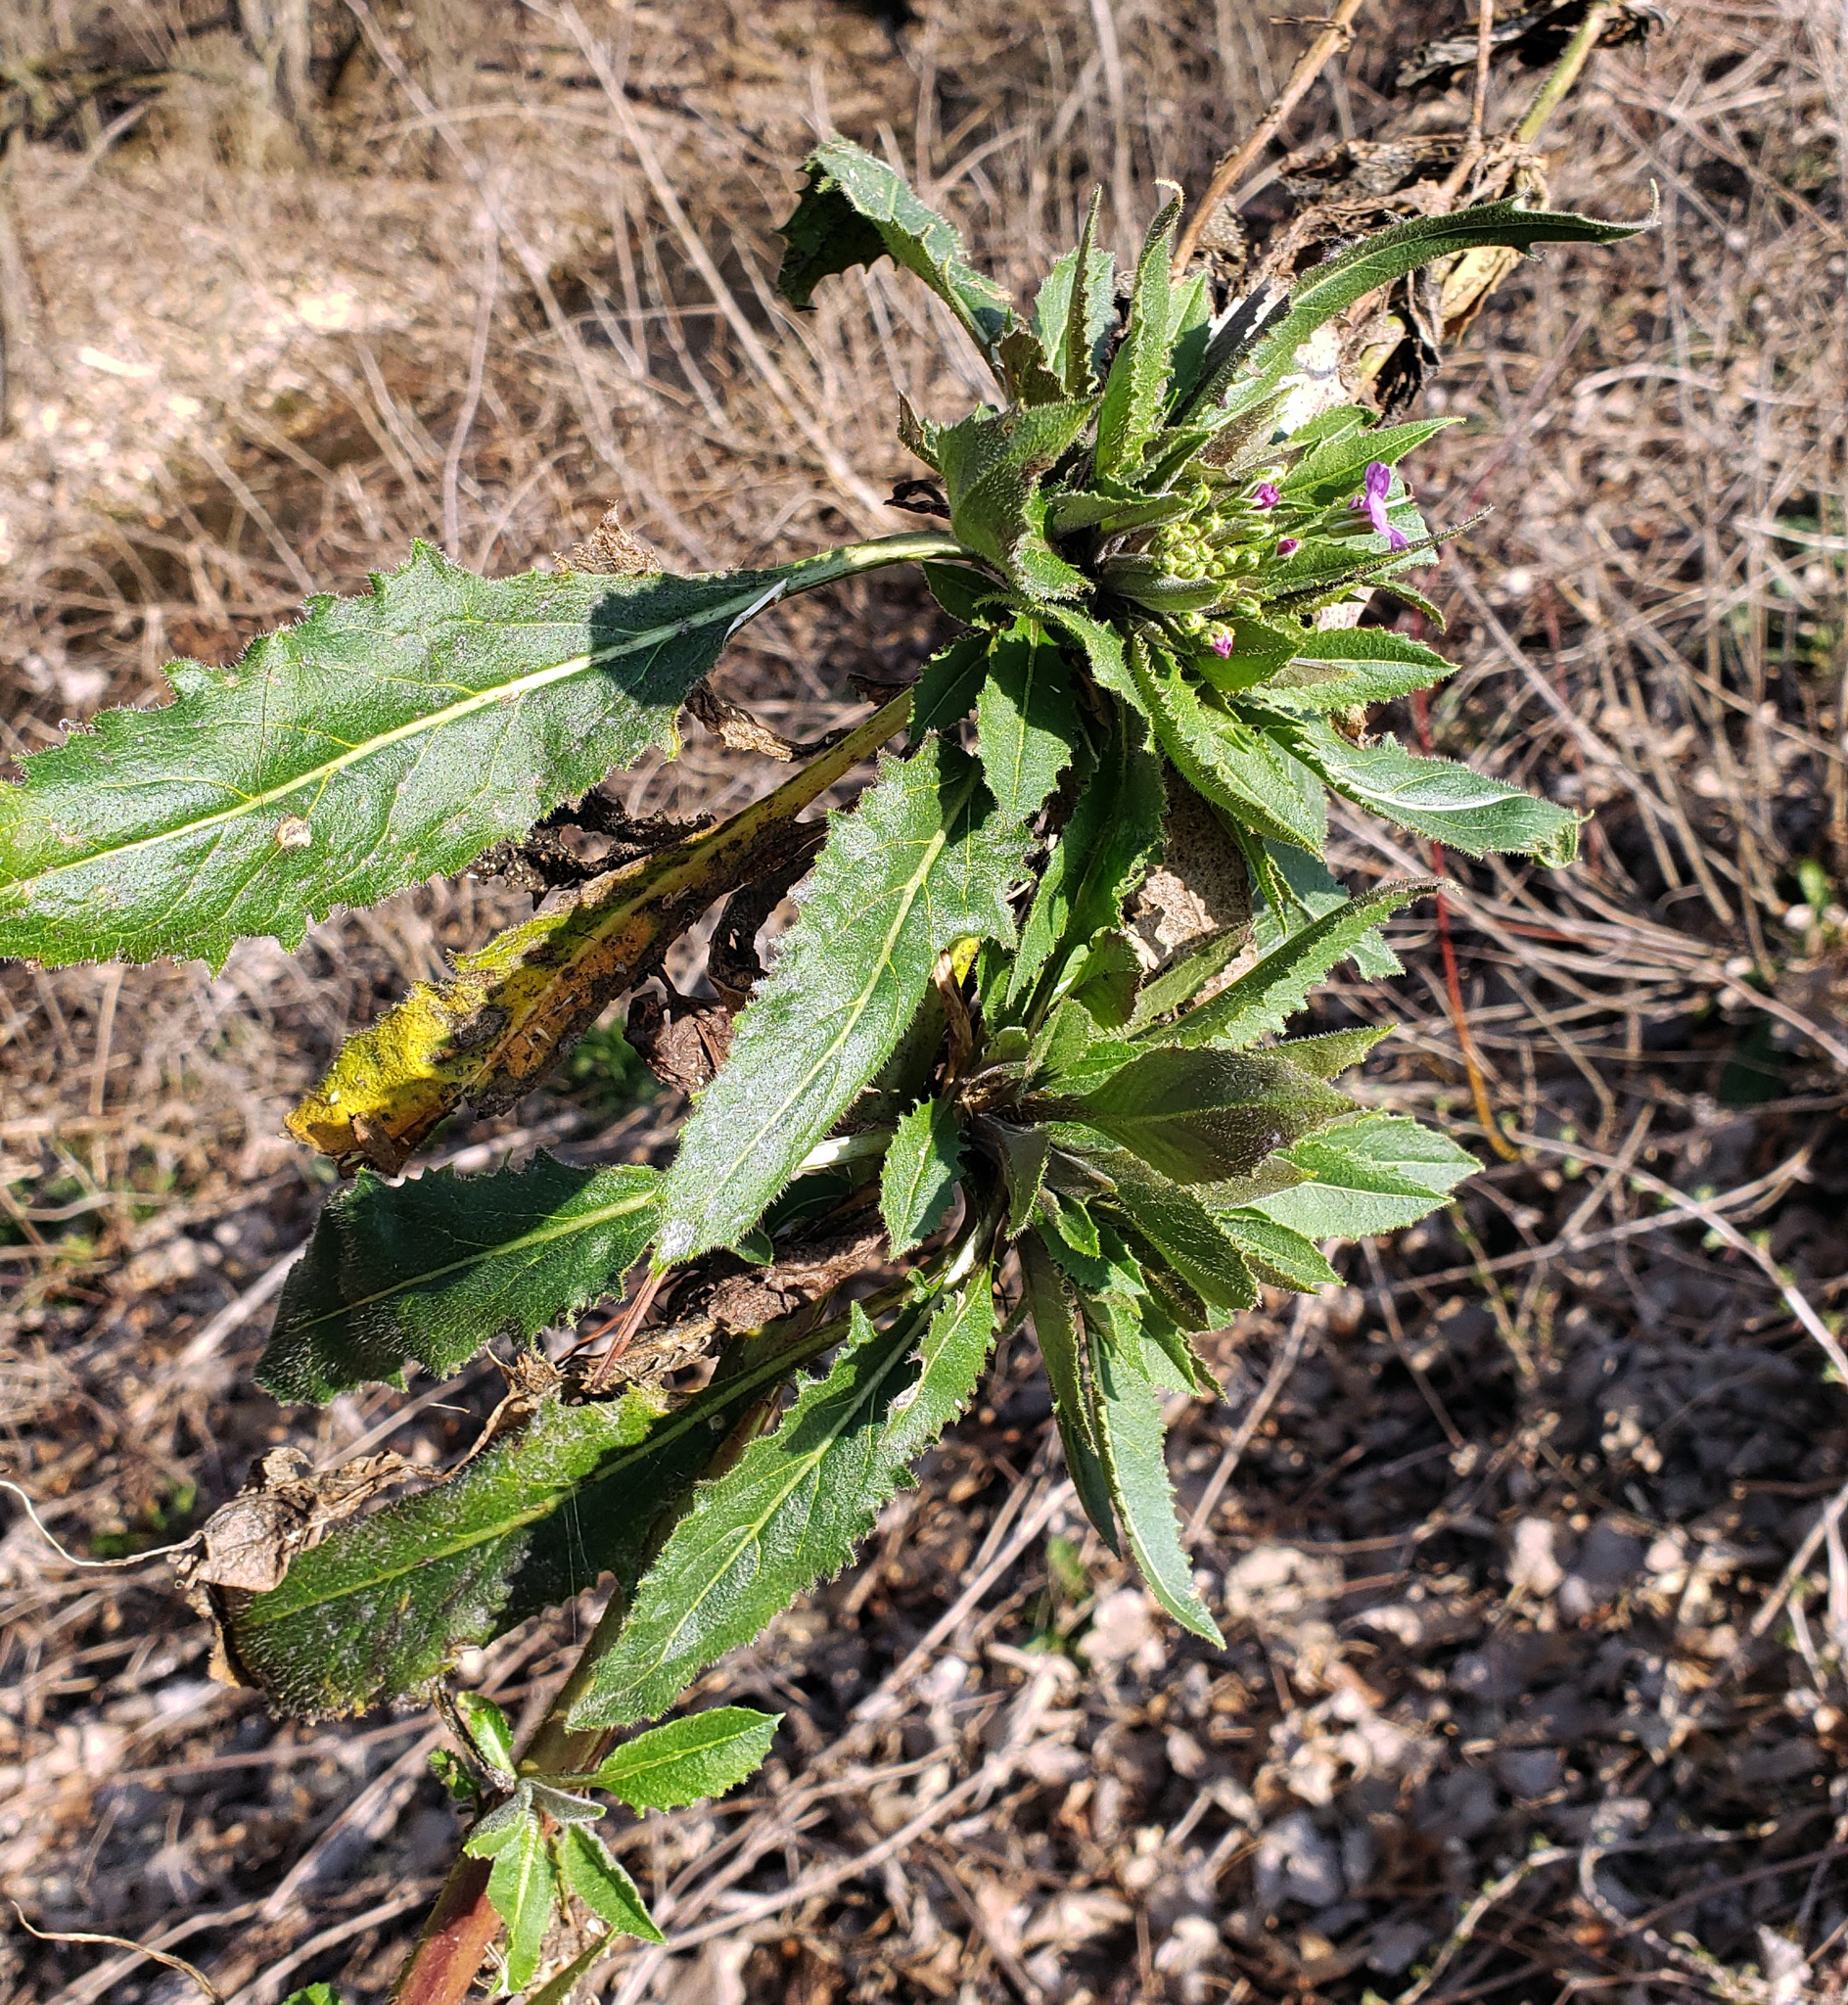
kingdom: Plantae
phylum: Tracheophyta
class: Magnoliopsida
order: Brassicales
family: Brassicaceae
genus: Hesperis
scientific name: Hesperis matronalis
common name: Dame's-violet
